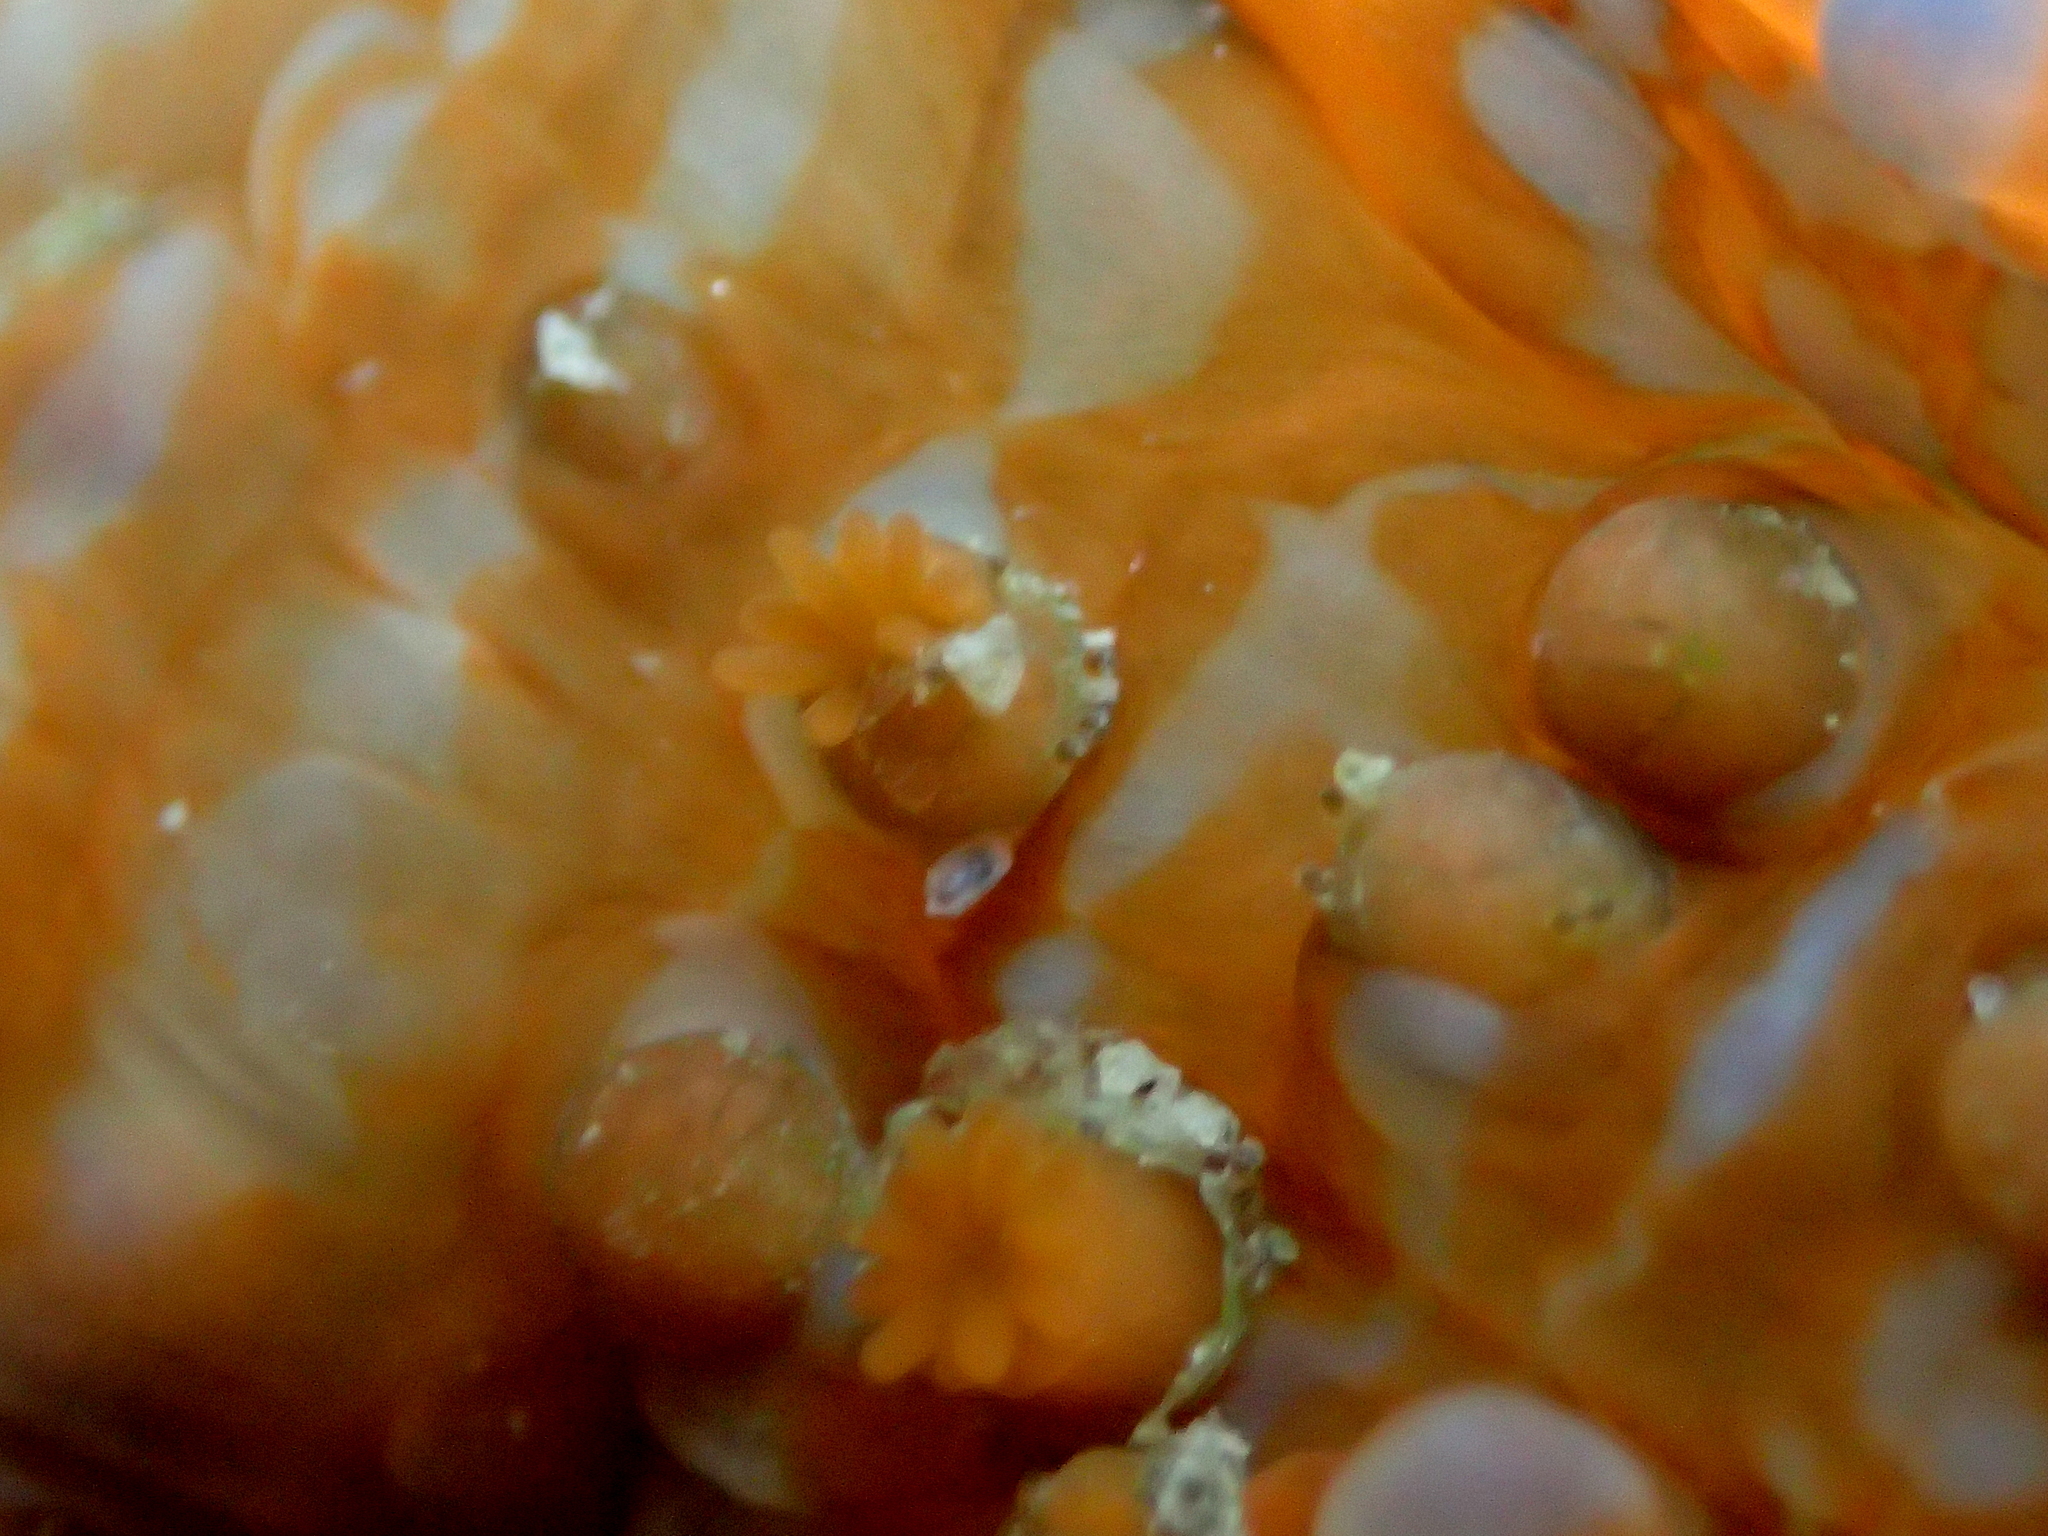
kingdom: Animalia
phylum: Cnidaria
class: Anthozoa
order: Actiniaria
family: Actiniidae
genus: Epiactis
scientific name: Epiactis
